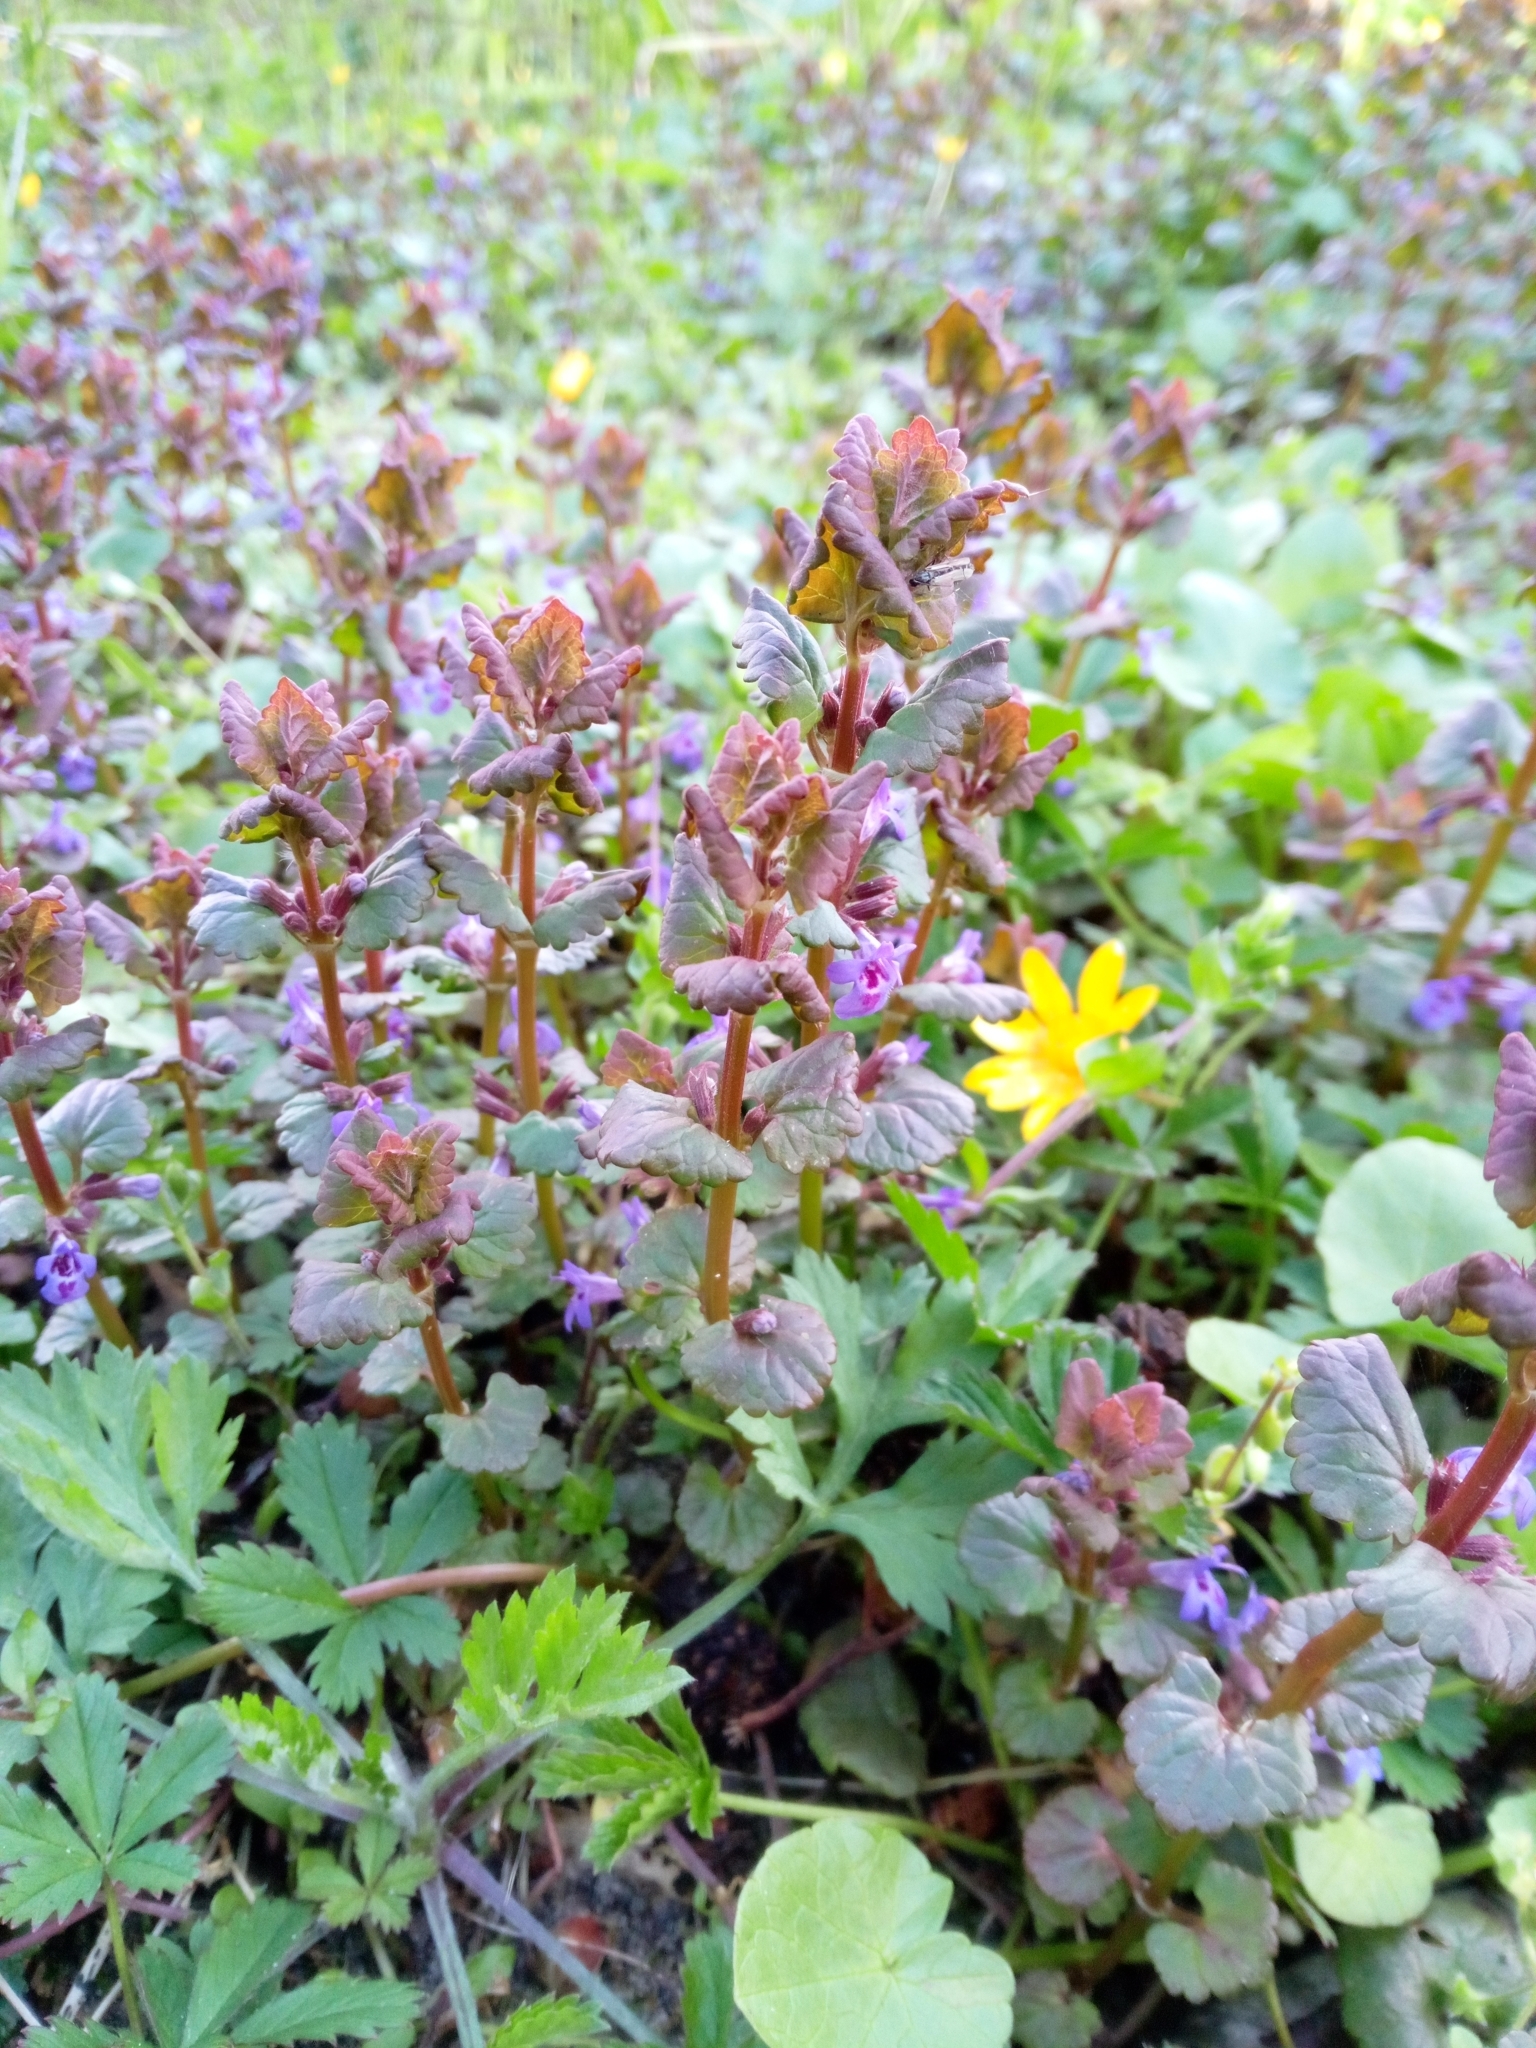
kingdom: Plantae
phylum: Tracheophyta
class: Magnoliopsida
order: Lamiales
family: Lamiaceae
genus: Glechoma
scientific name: Glechoma hederacea
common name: Ground ivy
